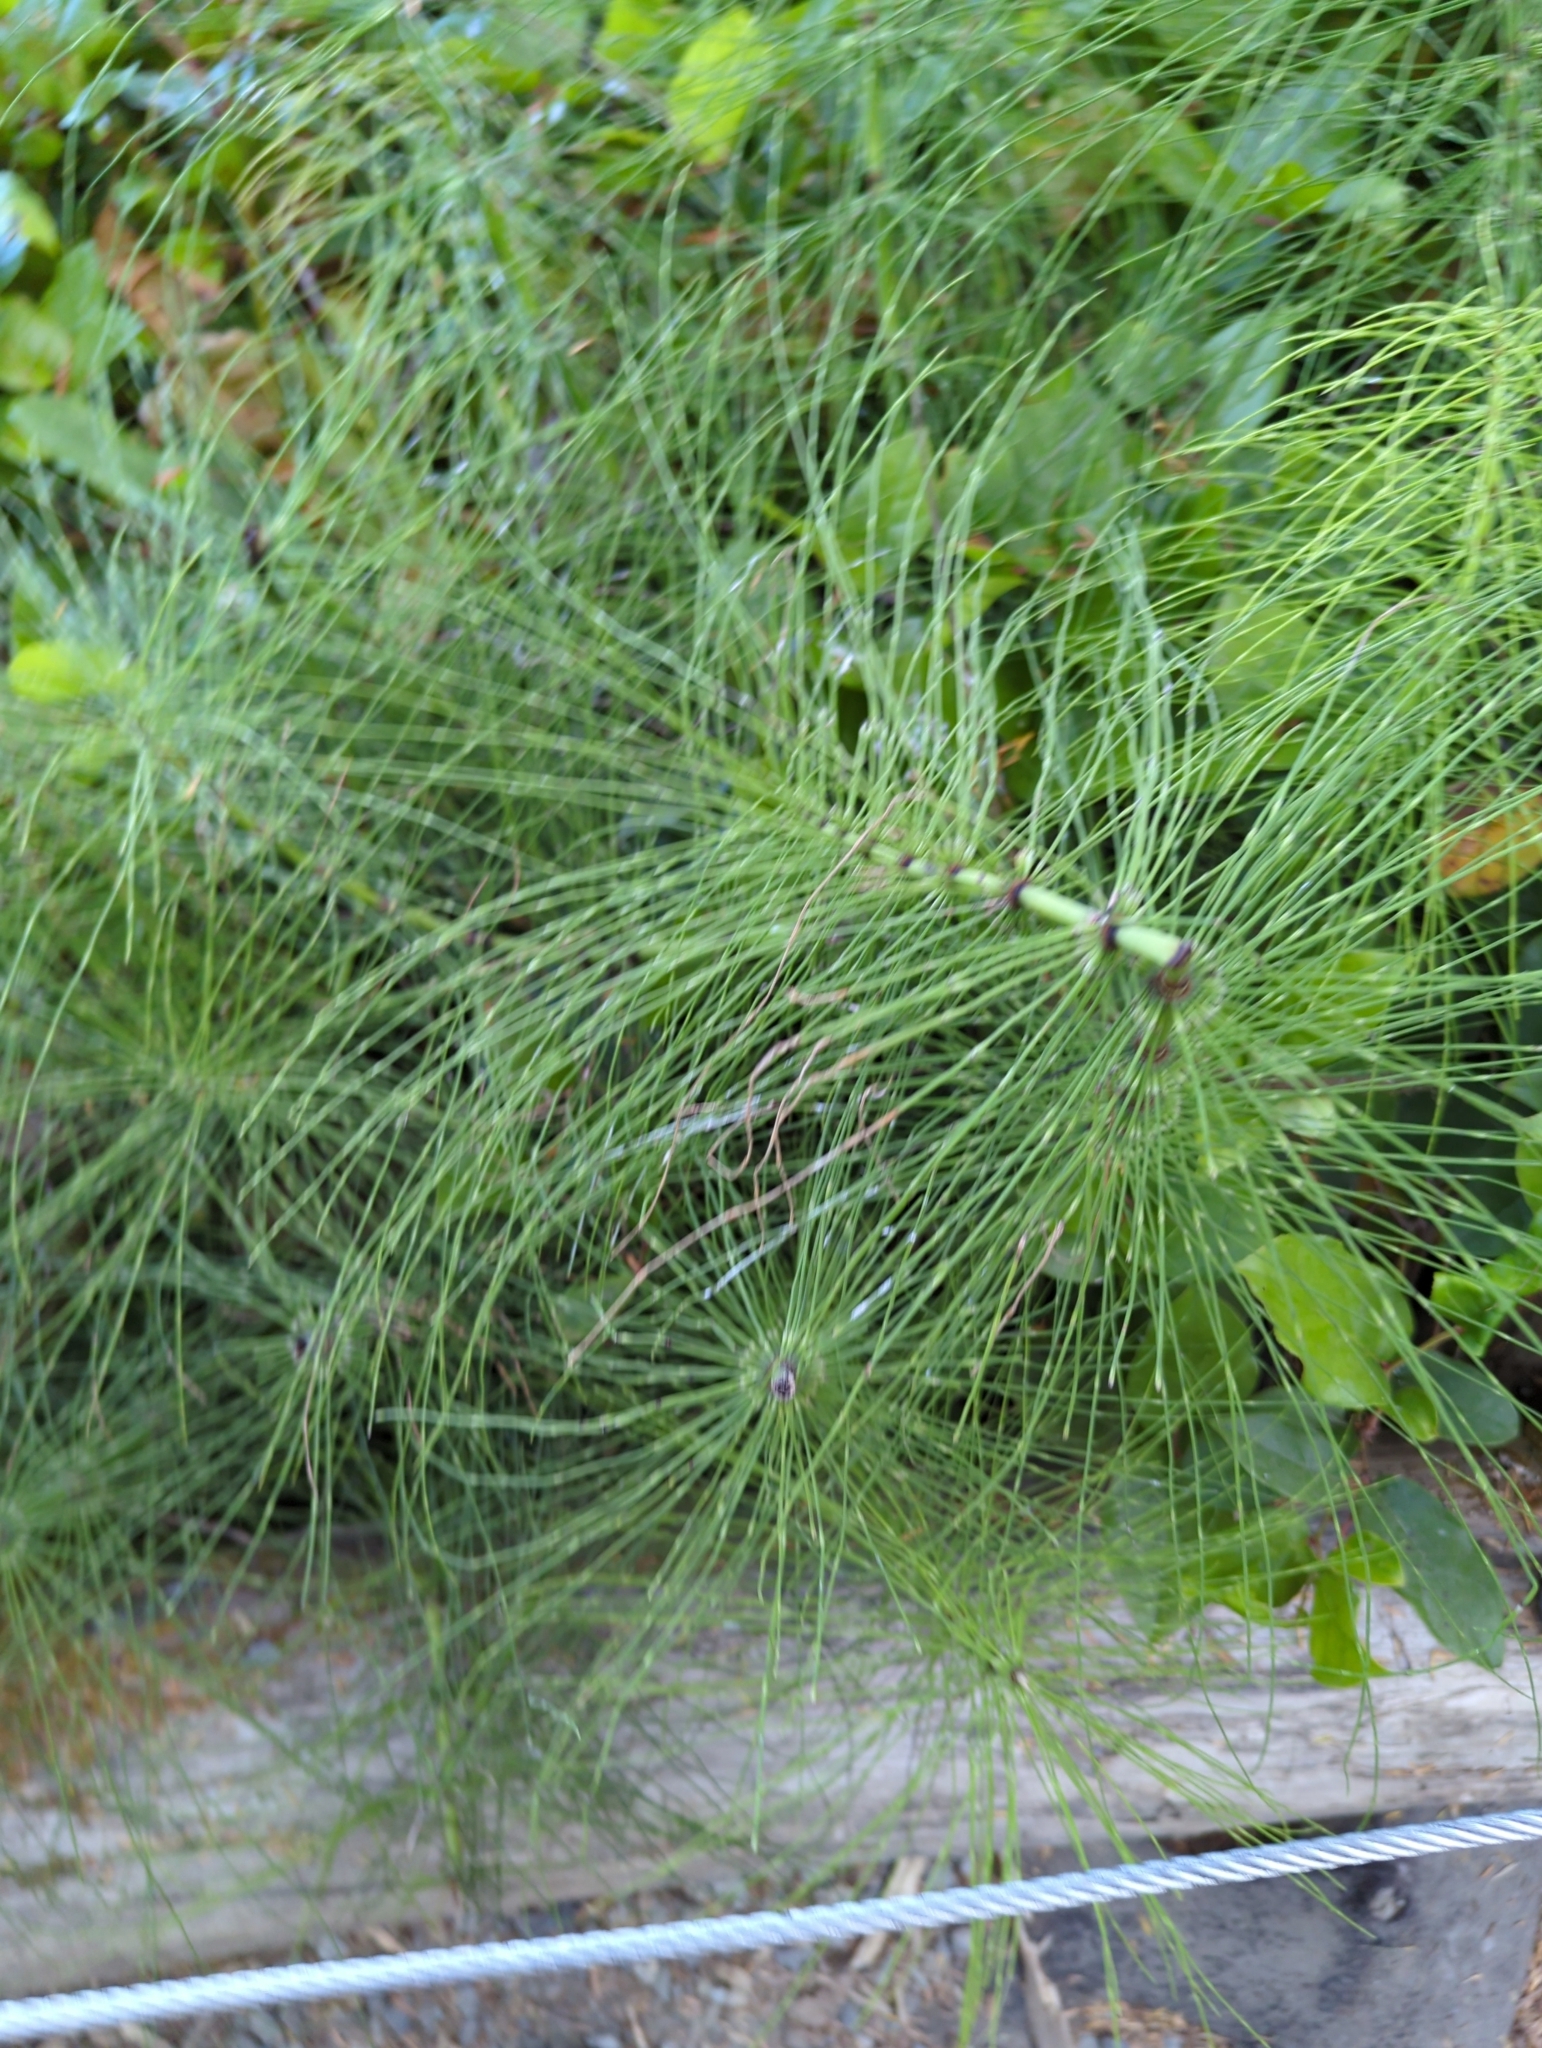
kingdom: Plantae
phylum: Tracheophyta
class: Polypodiopsida
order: Equisetales
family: Equisetaceae
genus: Equisetum
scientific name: Equisetum telmateia
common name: Great horsetail
